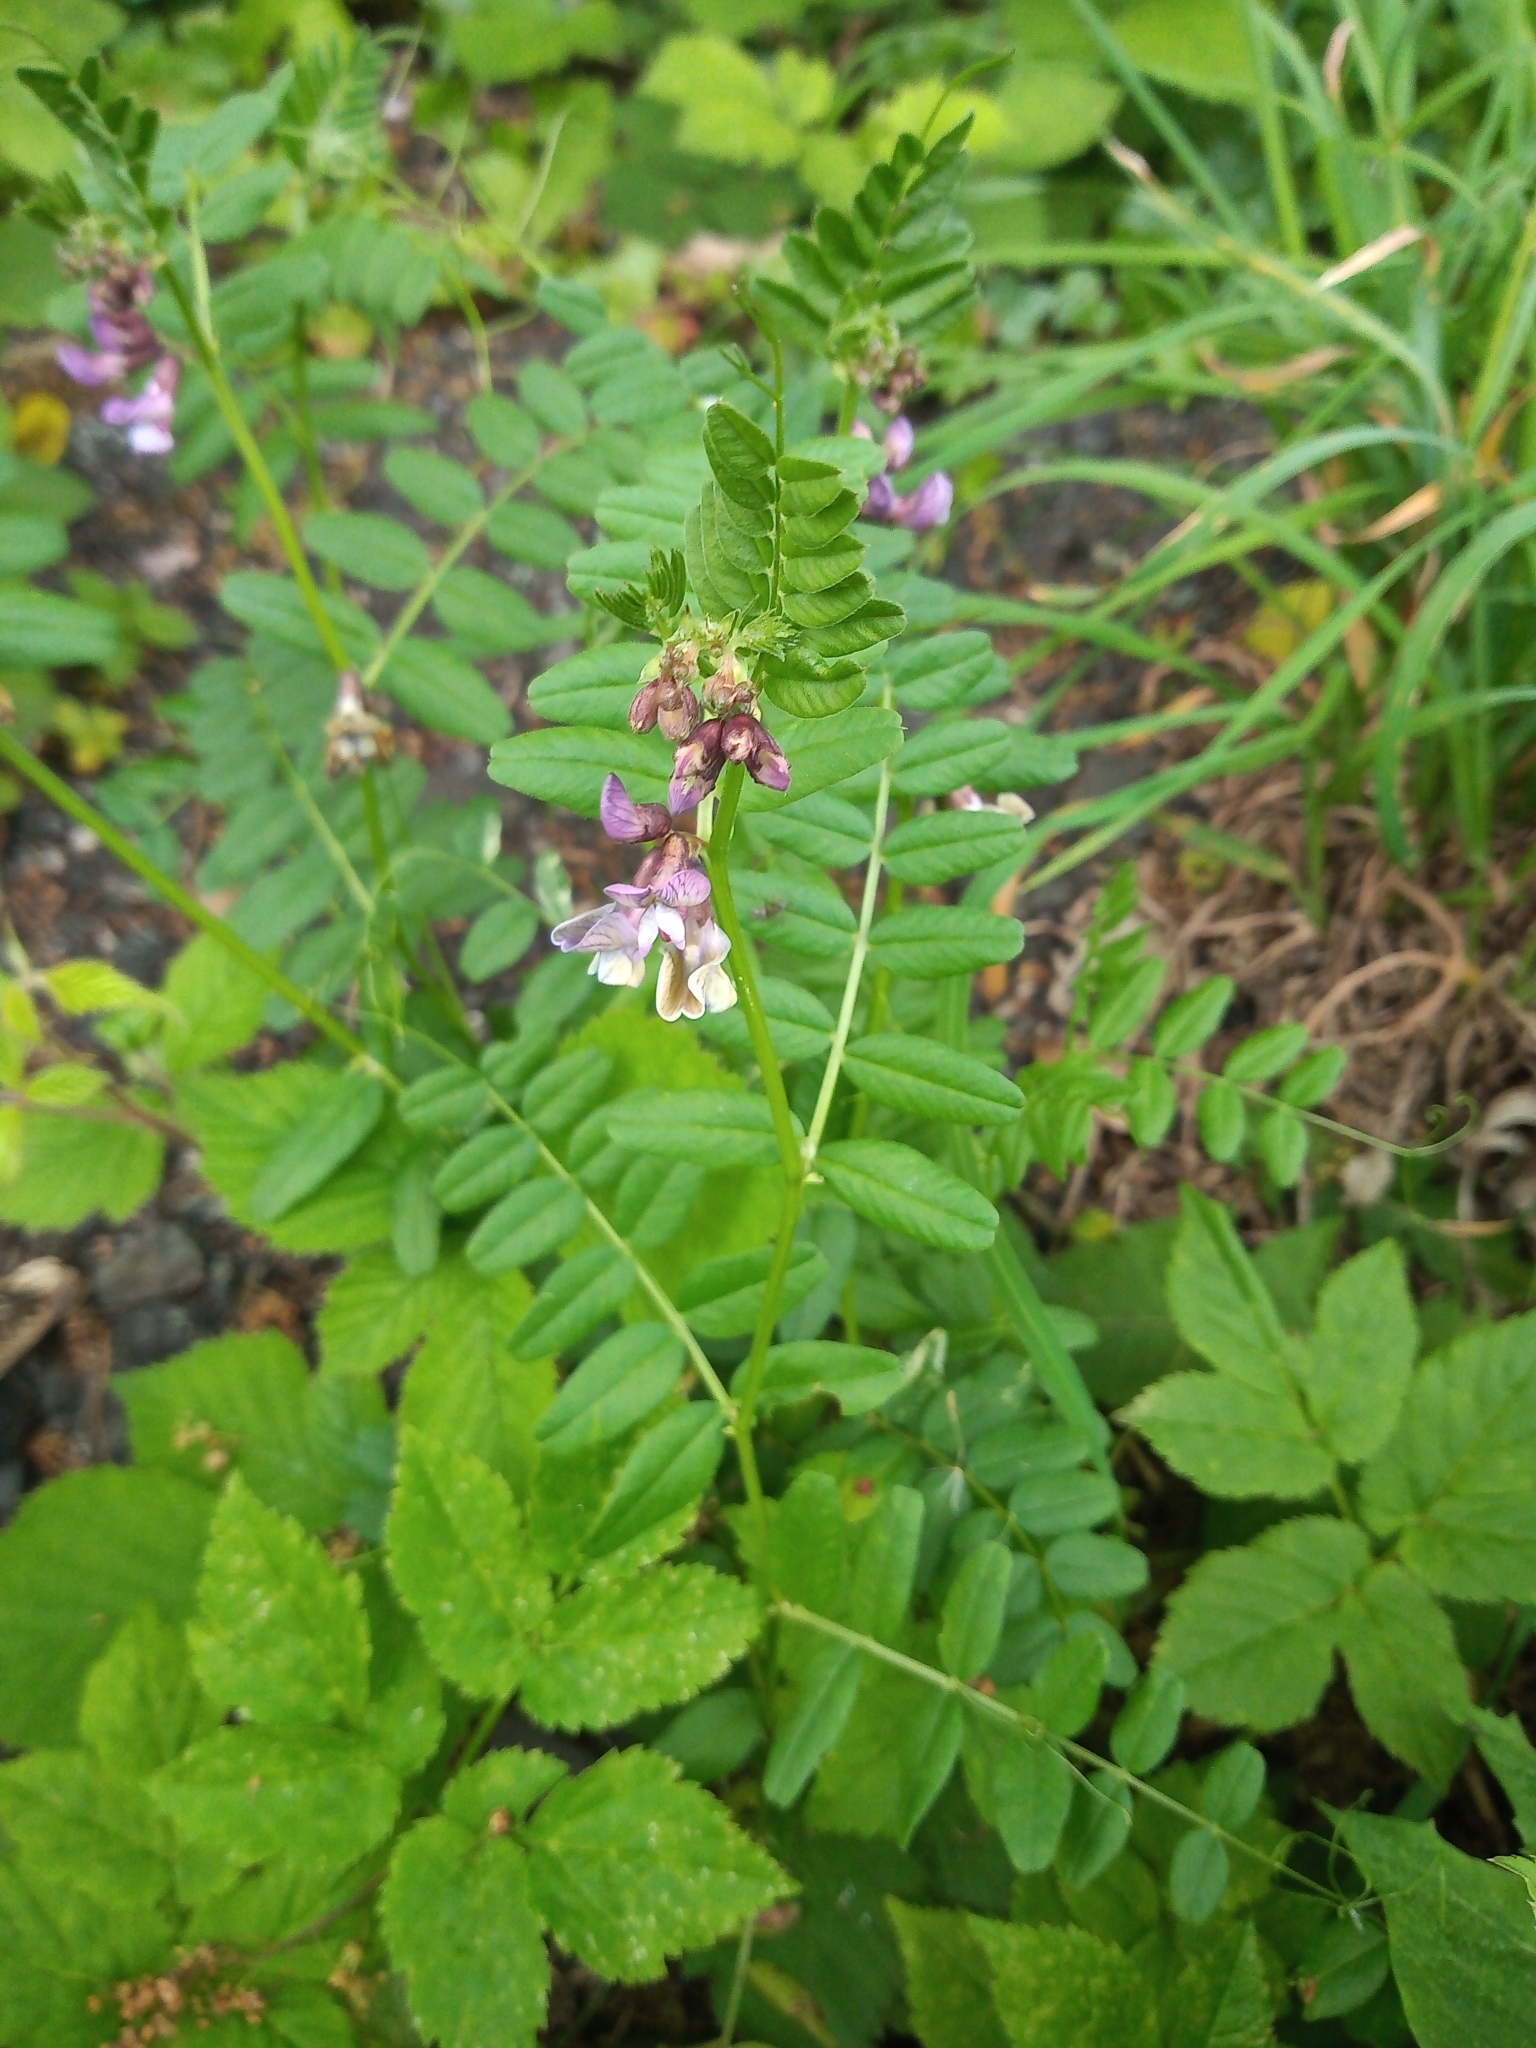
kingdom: Plantae
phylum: Tracheophyta
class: Magnoliopsida
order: Fabales
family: Fabaceae
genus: Vicia
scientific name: Vicia sepium
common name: Bush vetch
